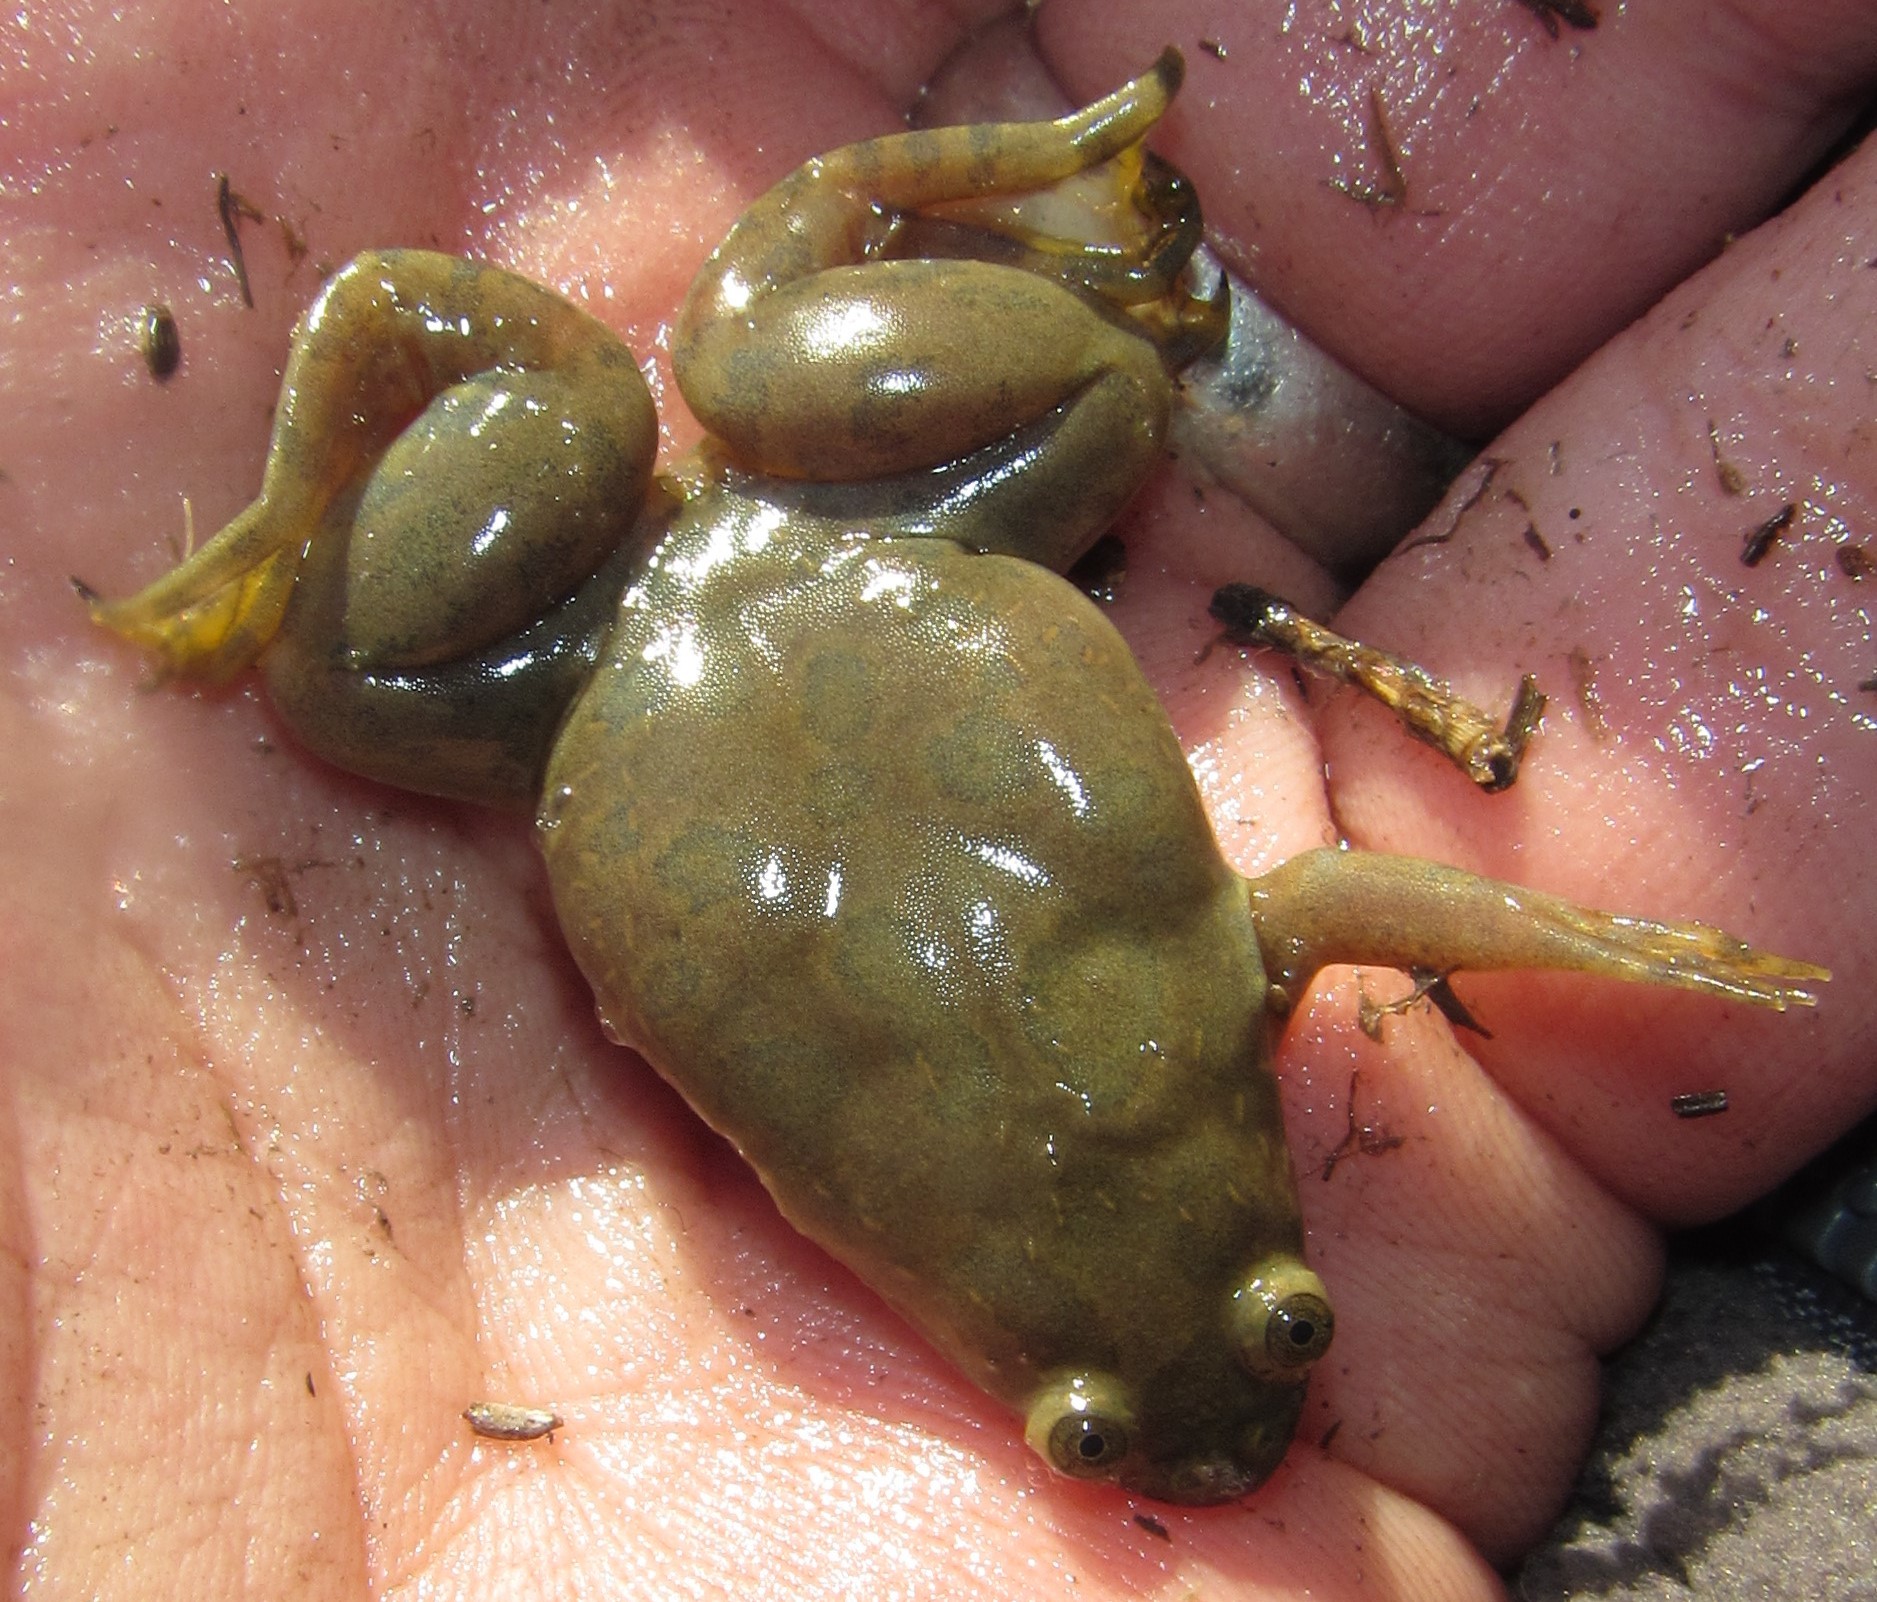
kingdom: Animalia
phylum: Chordata
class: Amphibia
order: Anura
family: Pipidae
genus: Xenopus
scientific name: Xenopus muelleri
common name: Muller's clawed frog
